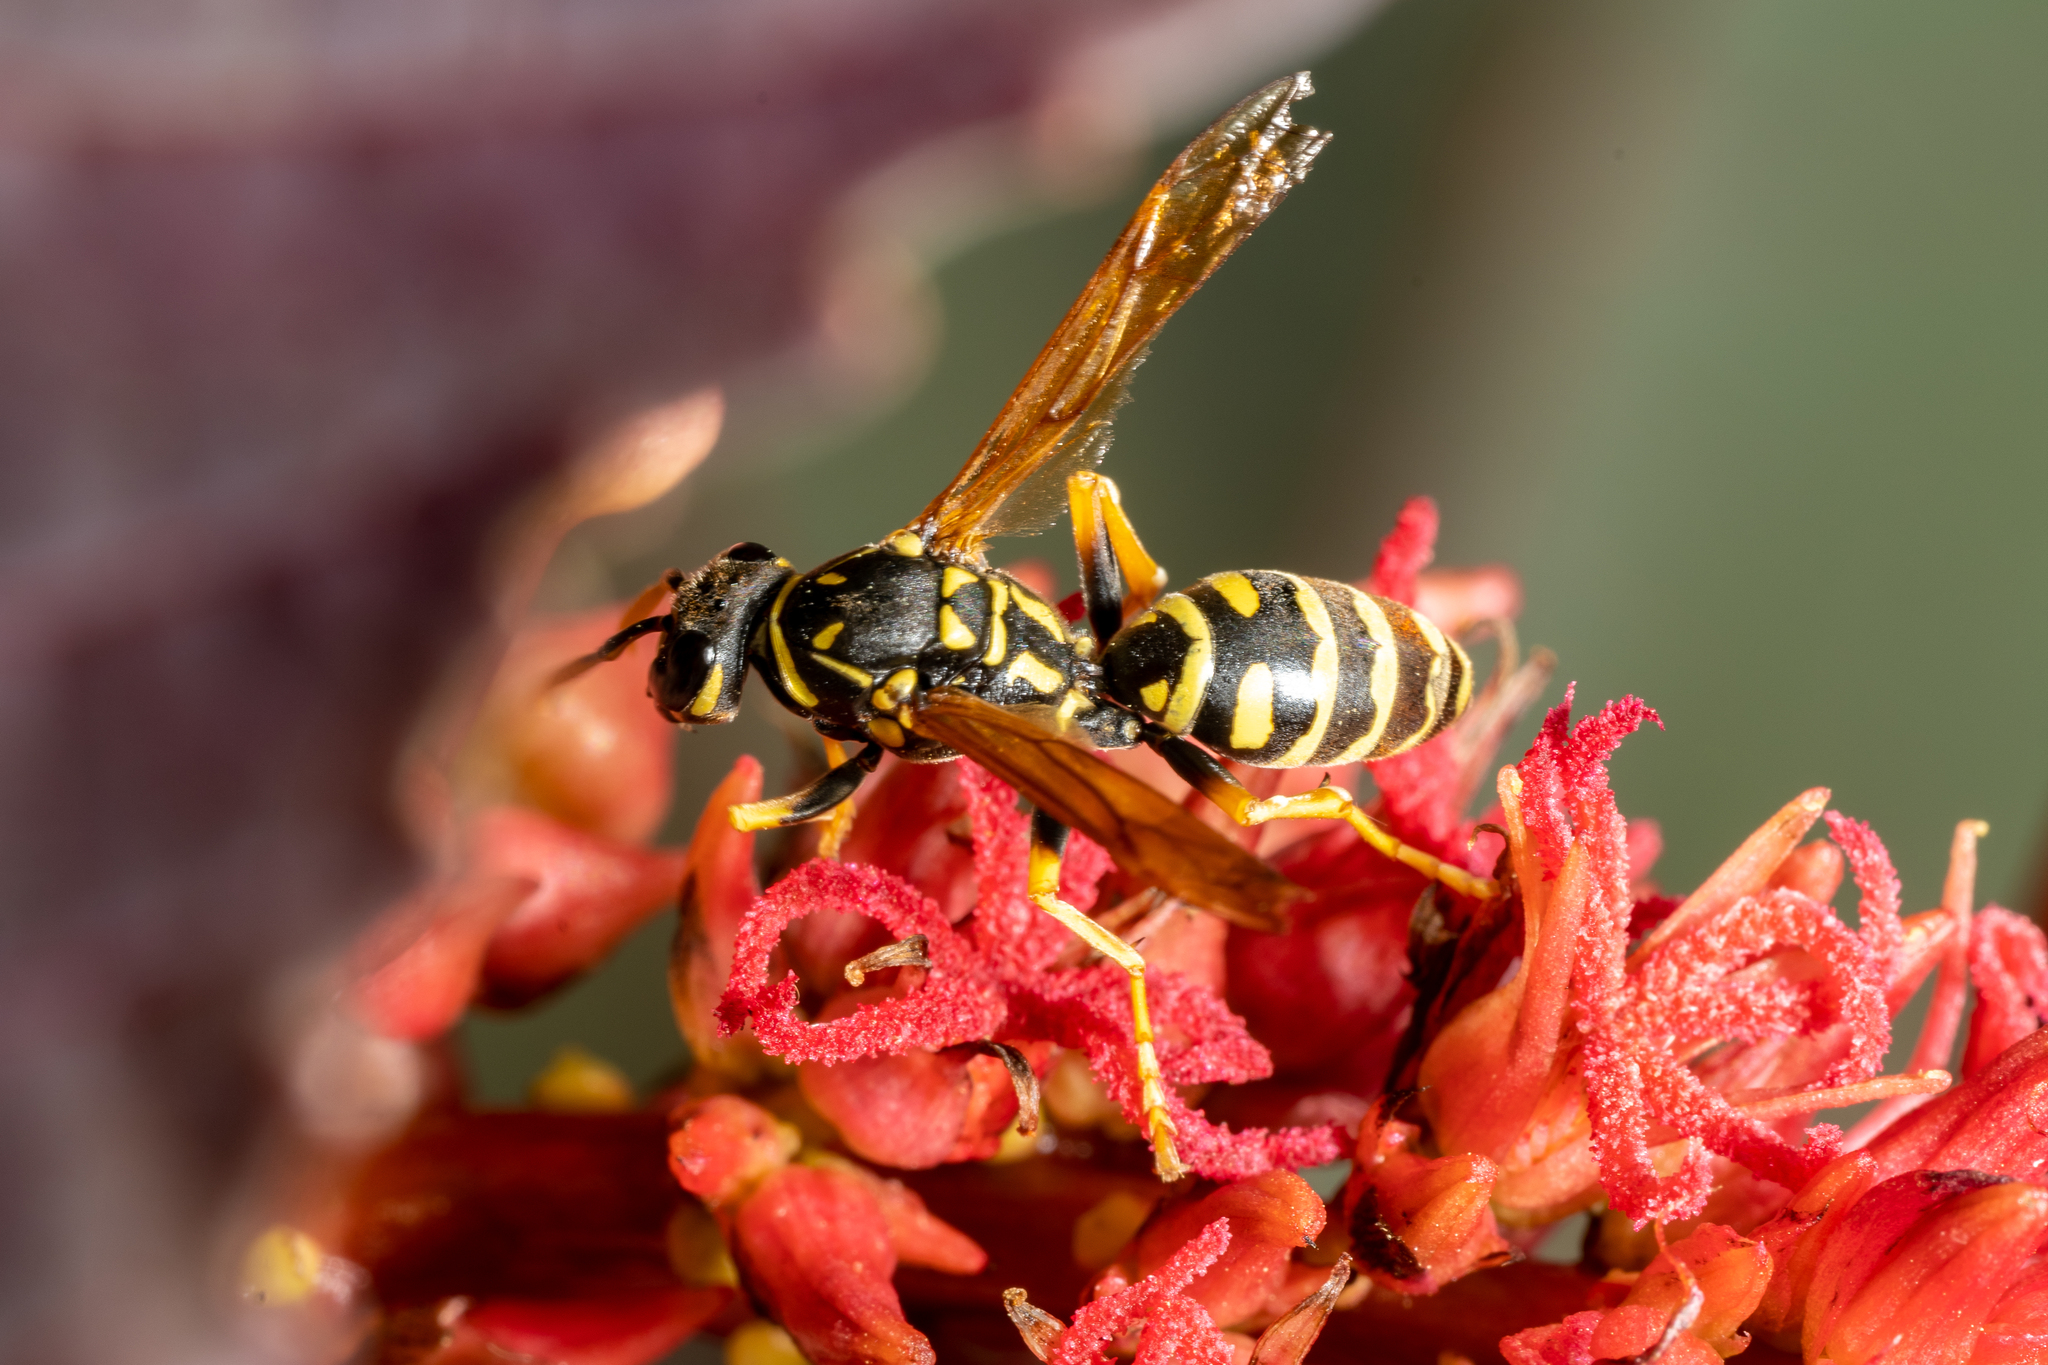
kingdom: Animalia
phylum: Arthropoda
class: Insecta
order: Hymenoptera
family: Eumenidae
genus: Polistes
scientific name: Polistes dominula
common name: Paper wasp
